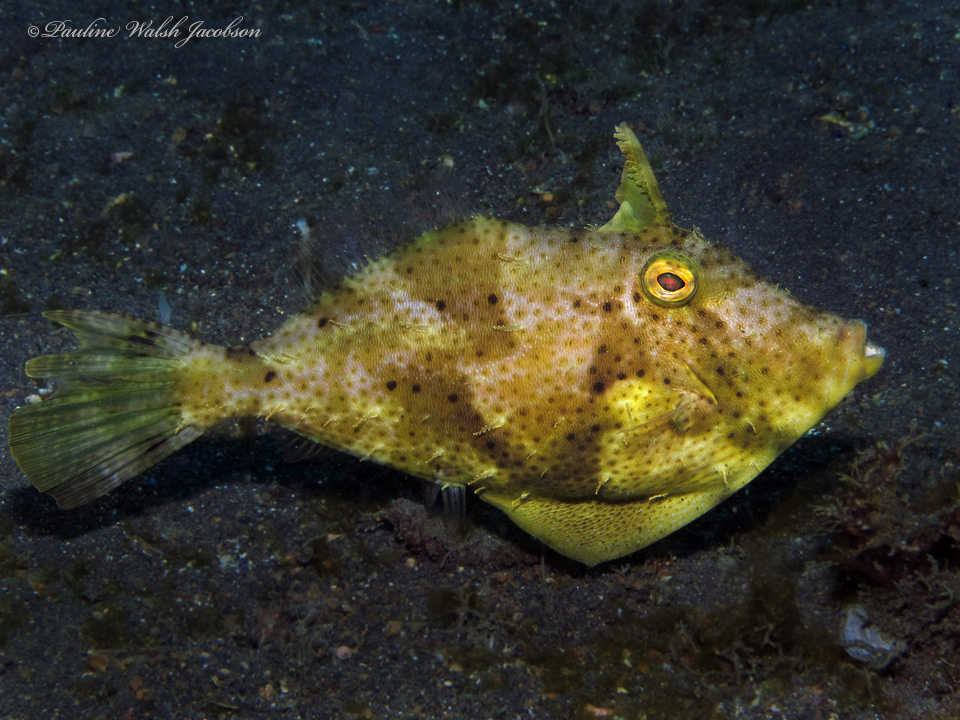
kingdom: Animalia
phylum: Chordata
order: Tetraodontiformes
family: Monacanthidae
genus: Pseudomonacanthus
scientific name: Pseudomonacanthus macrurus
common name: Blotchy filefish
